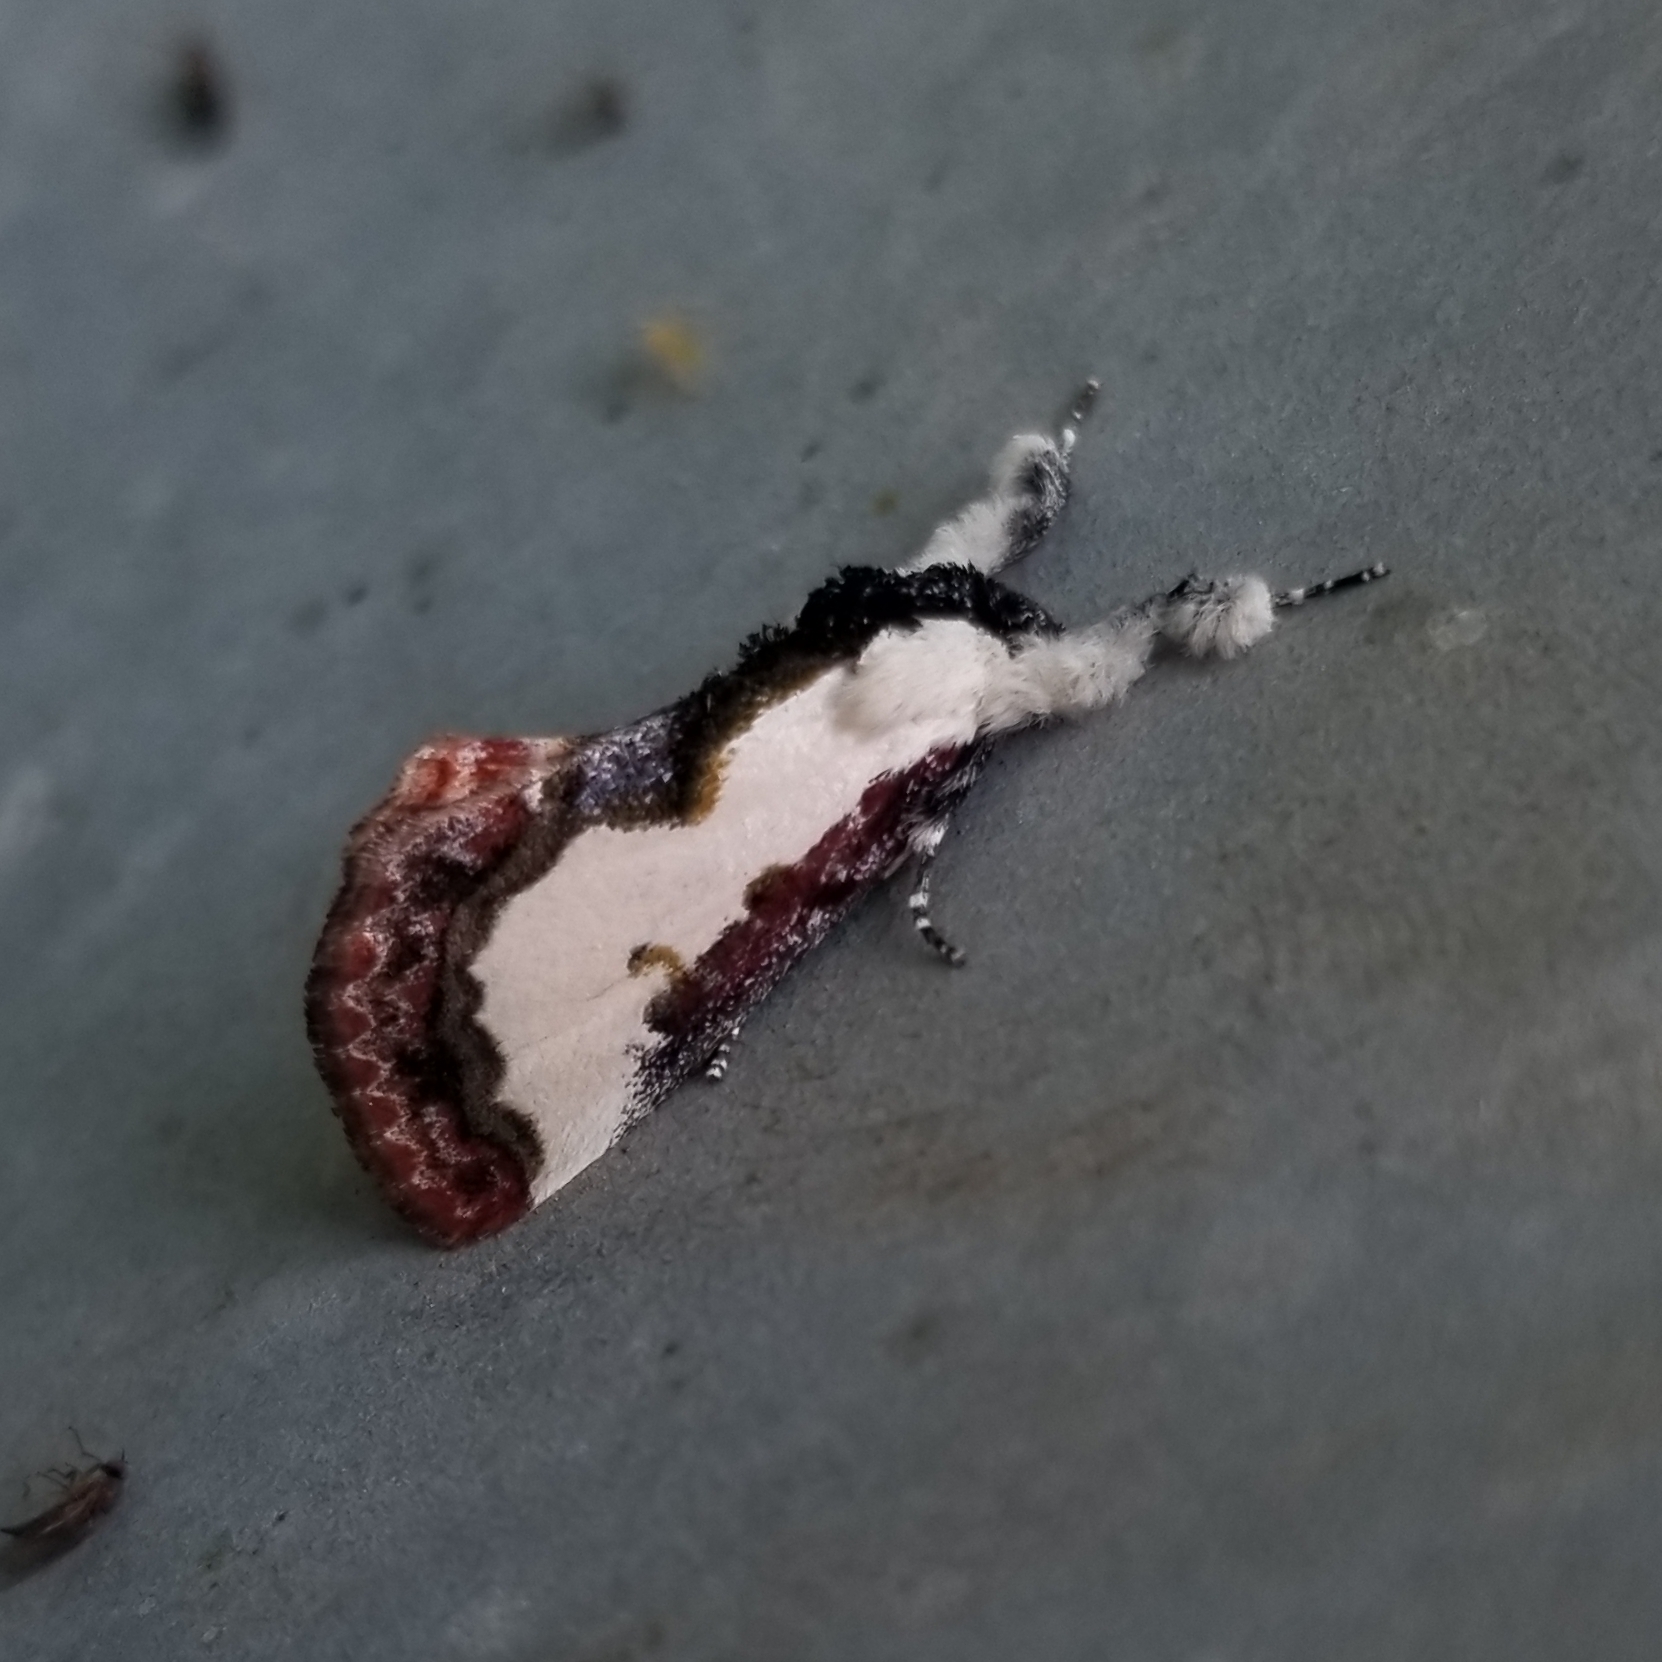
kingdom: Animalia
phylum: Arthropoda
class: Insecta
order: Lepidoptera
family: Noctuidae
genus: Eudryas
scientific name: Eudryas unio
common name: Pearly wood-nymph
